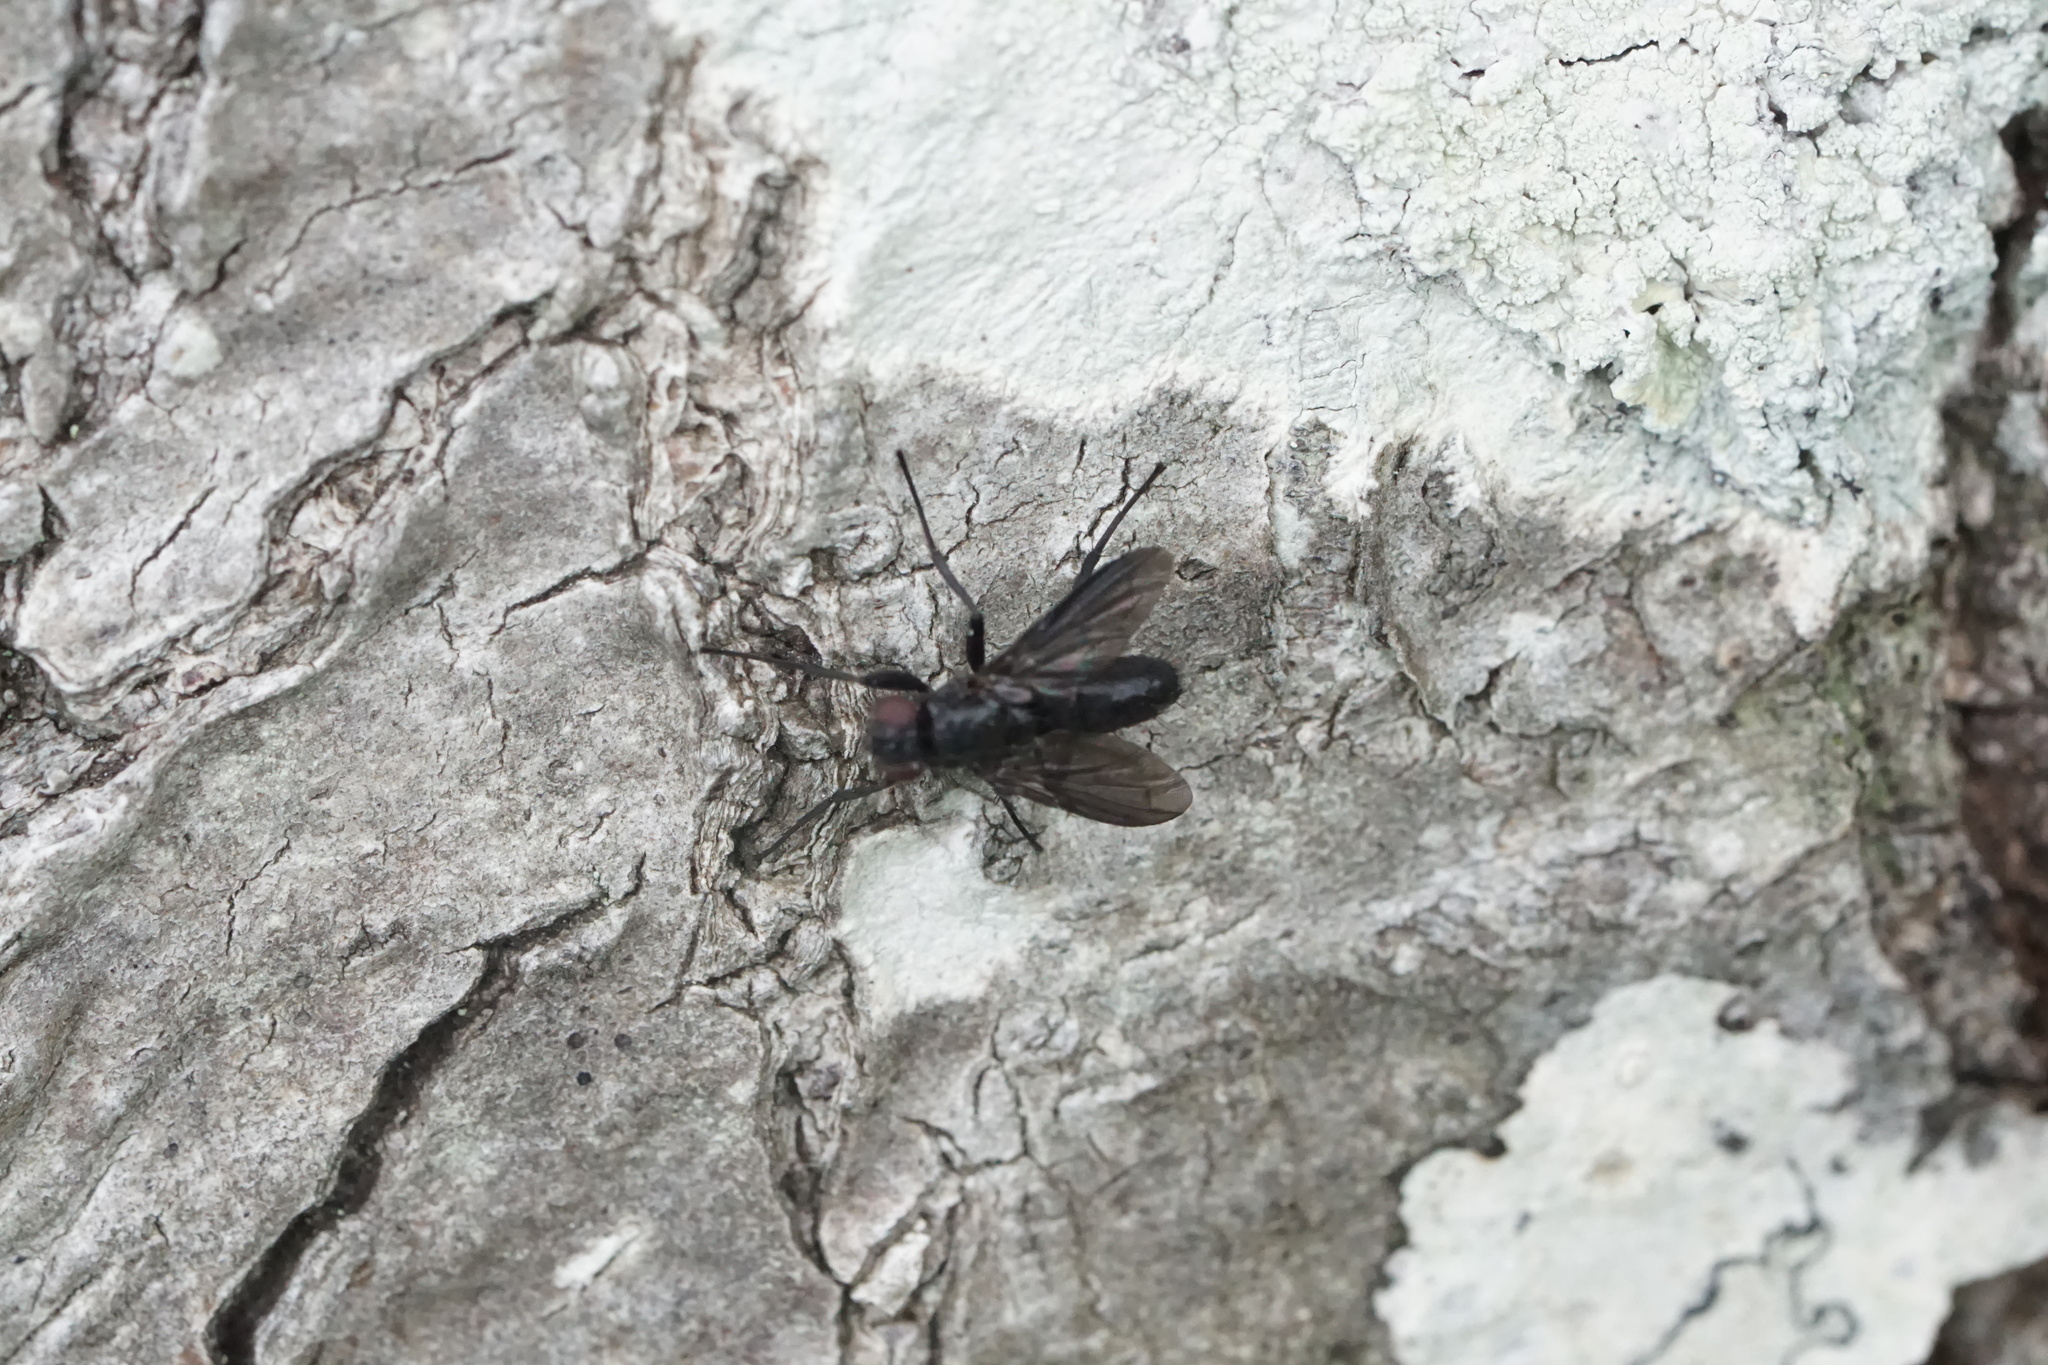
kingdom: Animalia
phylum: Arthropoda
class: Insecta
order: Diptera
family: Calliphoridae
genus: Melanophora
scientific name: Melanophora roralis
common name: Smoky-winged woodlouse-fly
